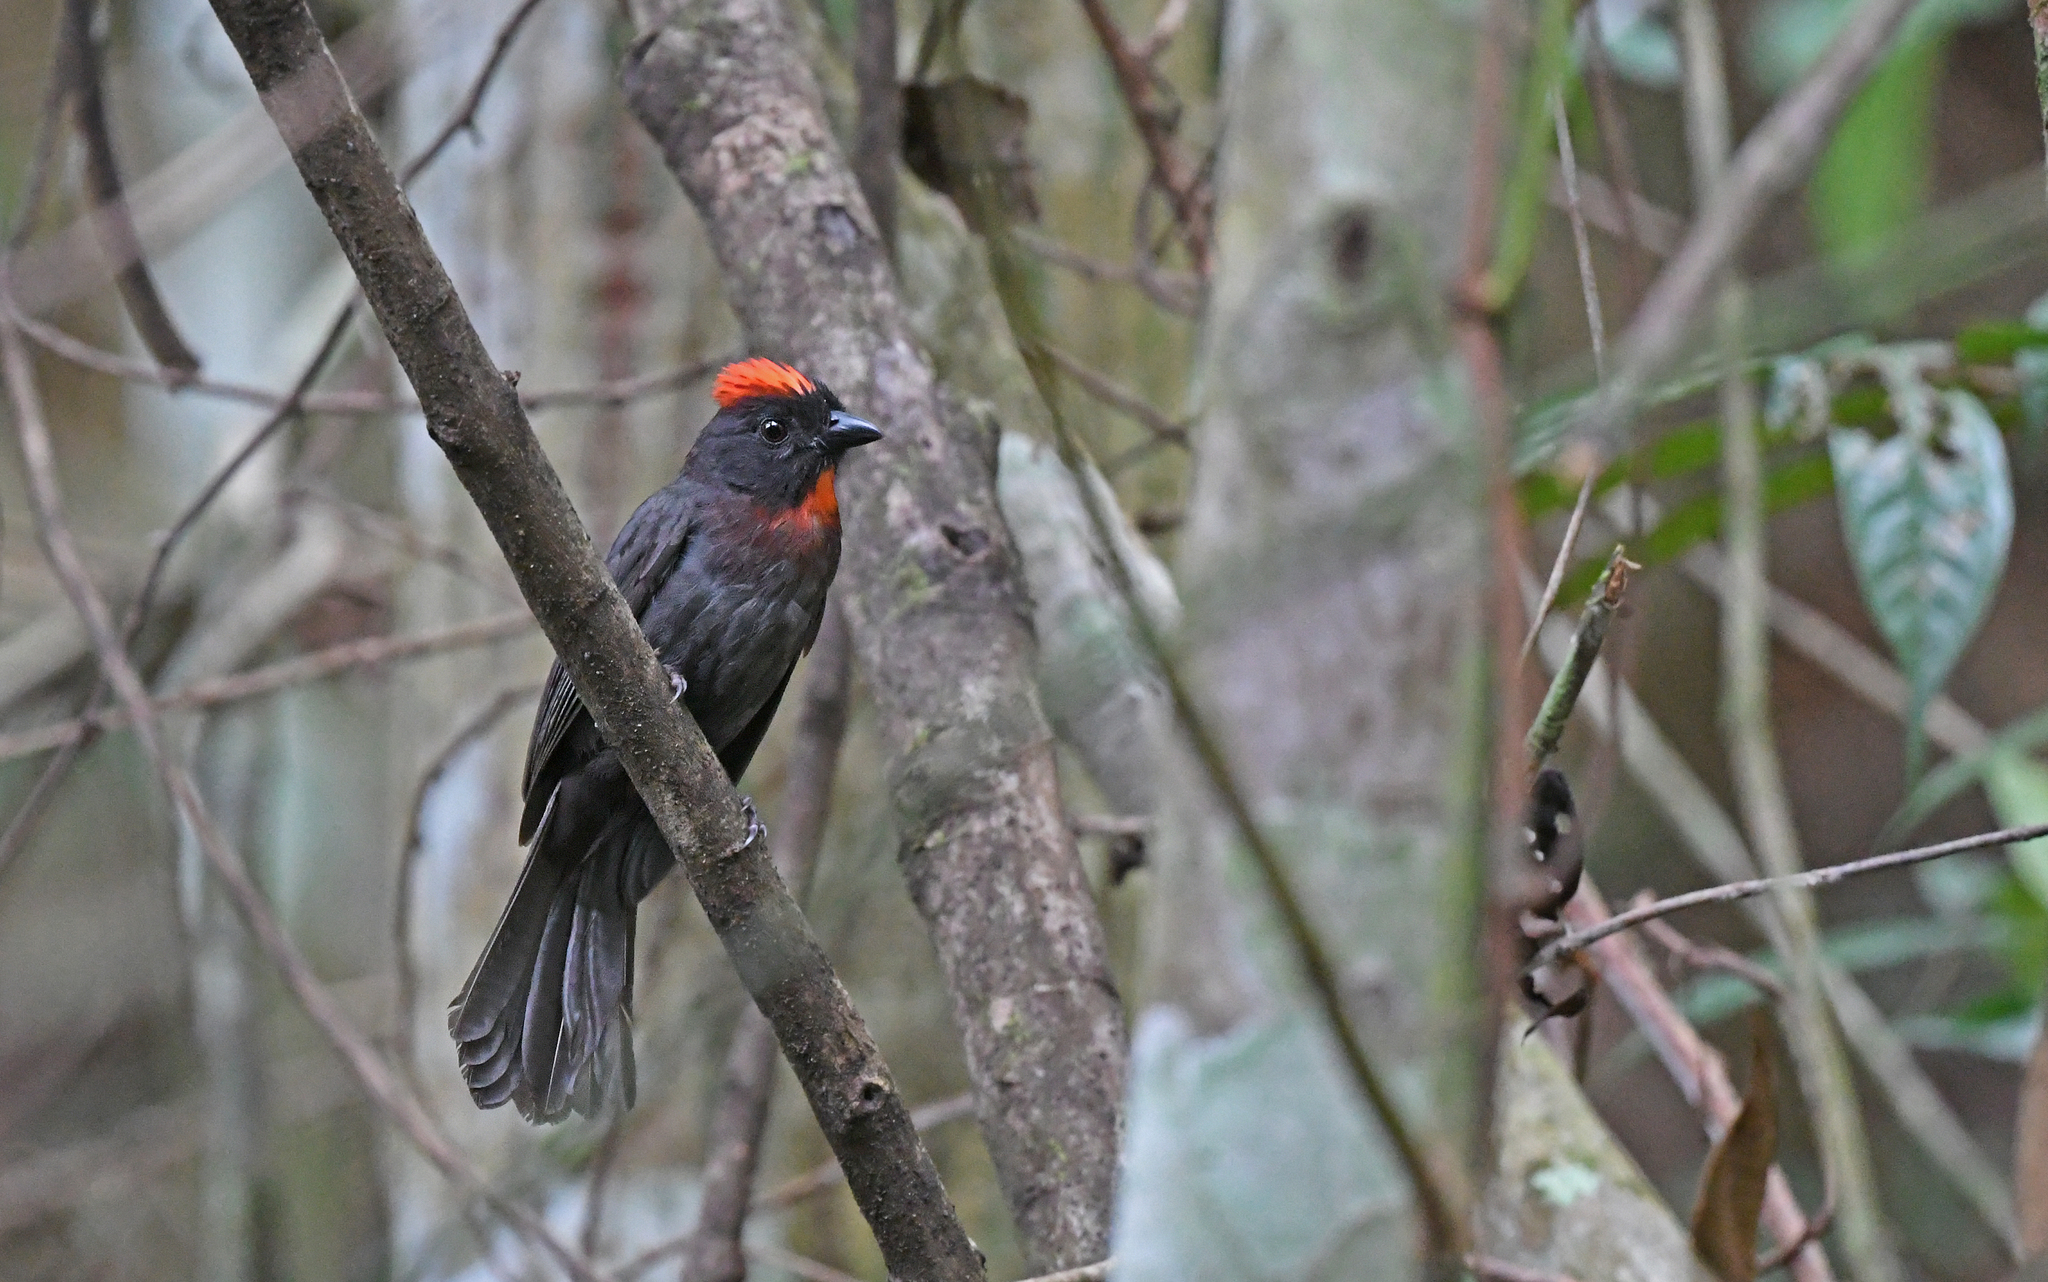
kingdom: Animalia
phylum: Chordata
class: Aves
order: Passeriformes
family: Cardinalidae
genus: Habia
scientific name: Habia gutturalis
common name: Sooty ant tanager
